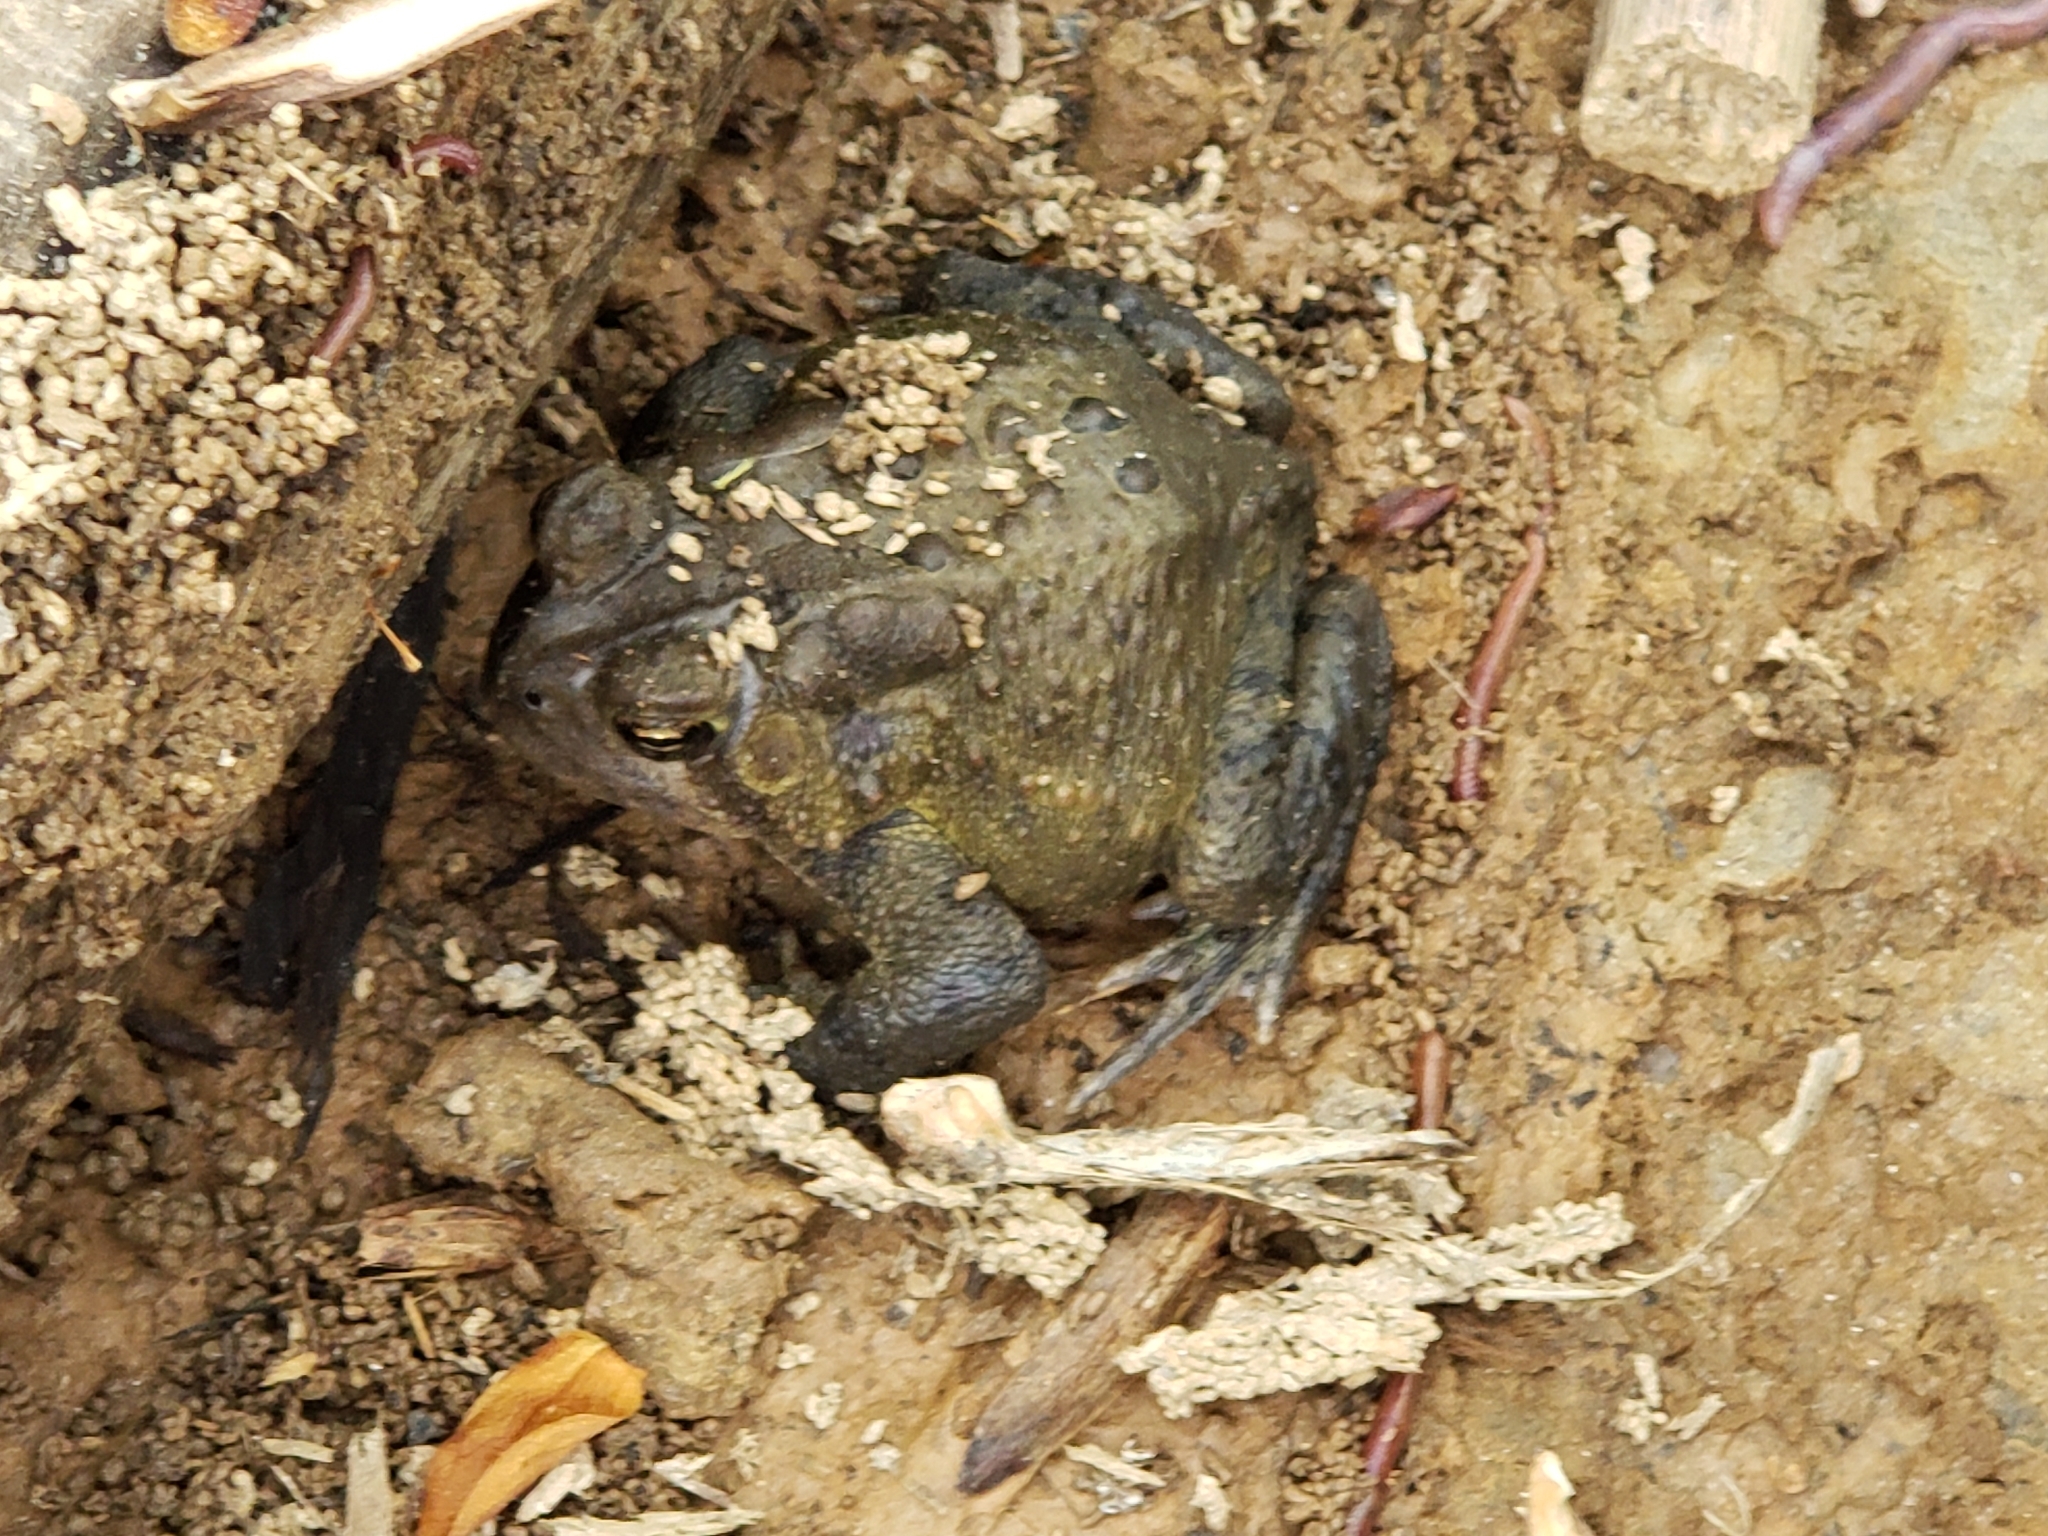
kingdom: Animalia
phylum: Chordata
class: Amphibia
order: Anura
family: Bufonidae
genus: Anaxyrus
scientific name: Anaxyrus americanus
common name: American toad
